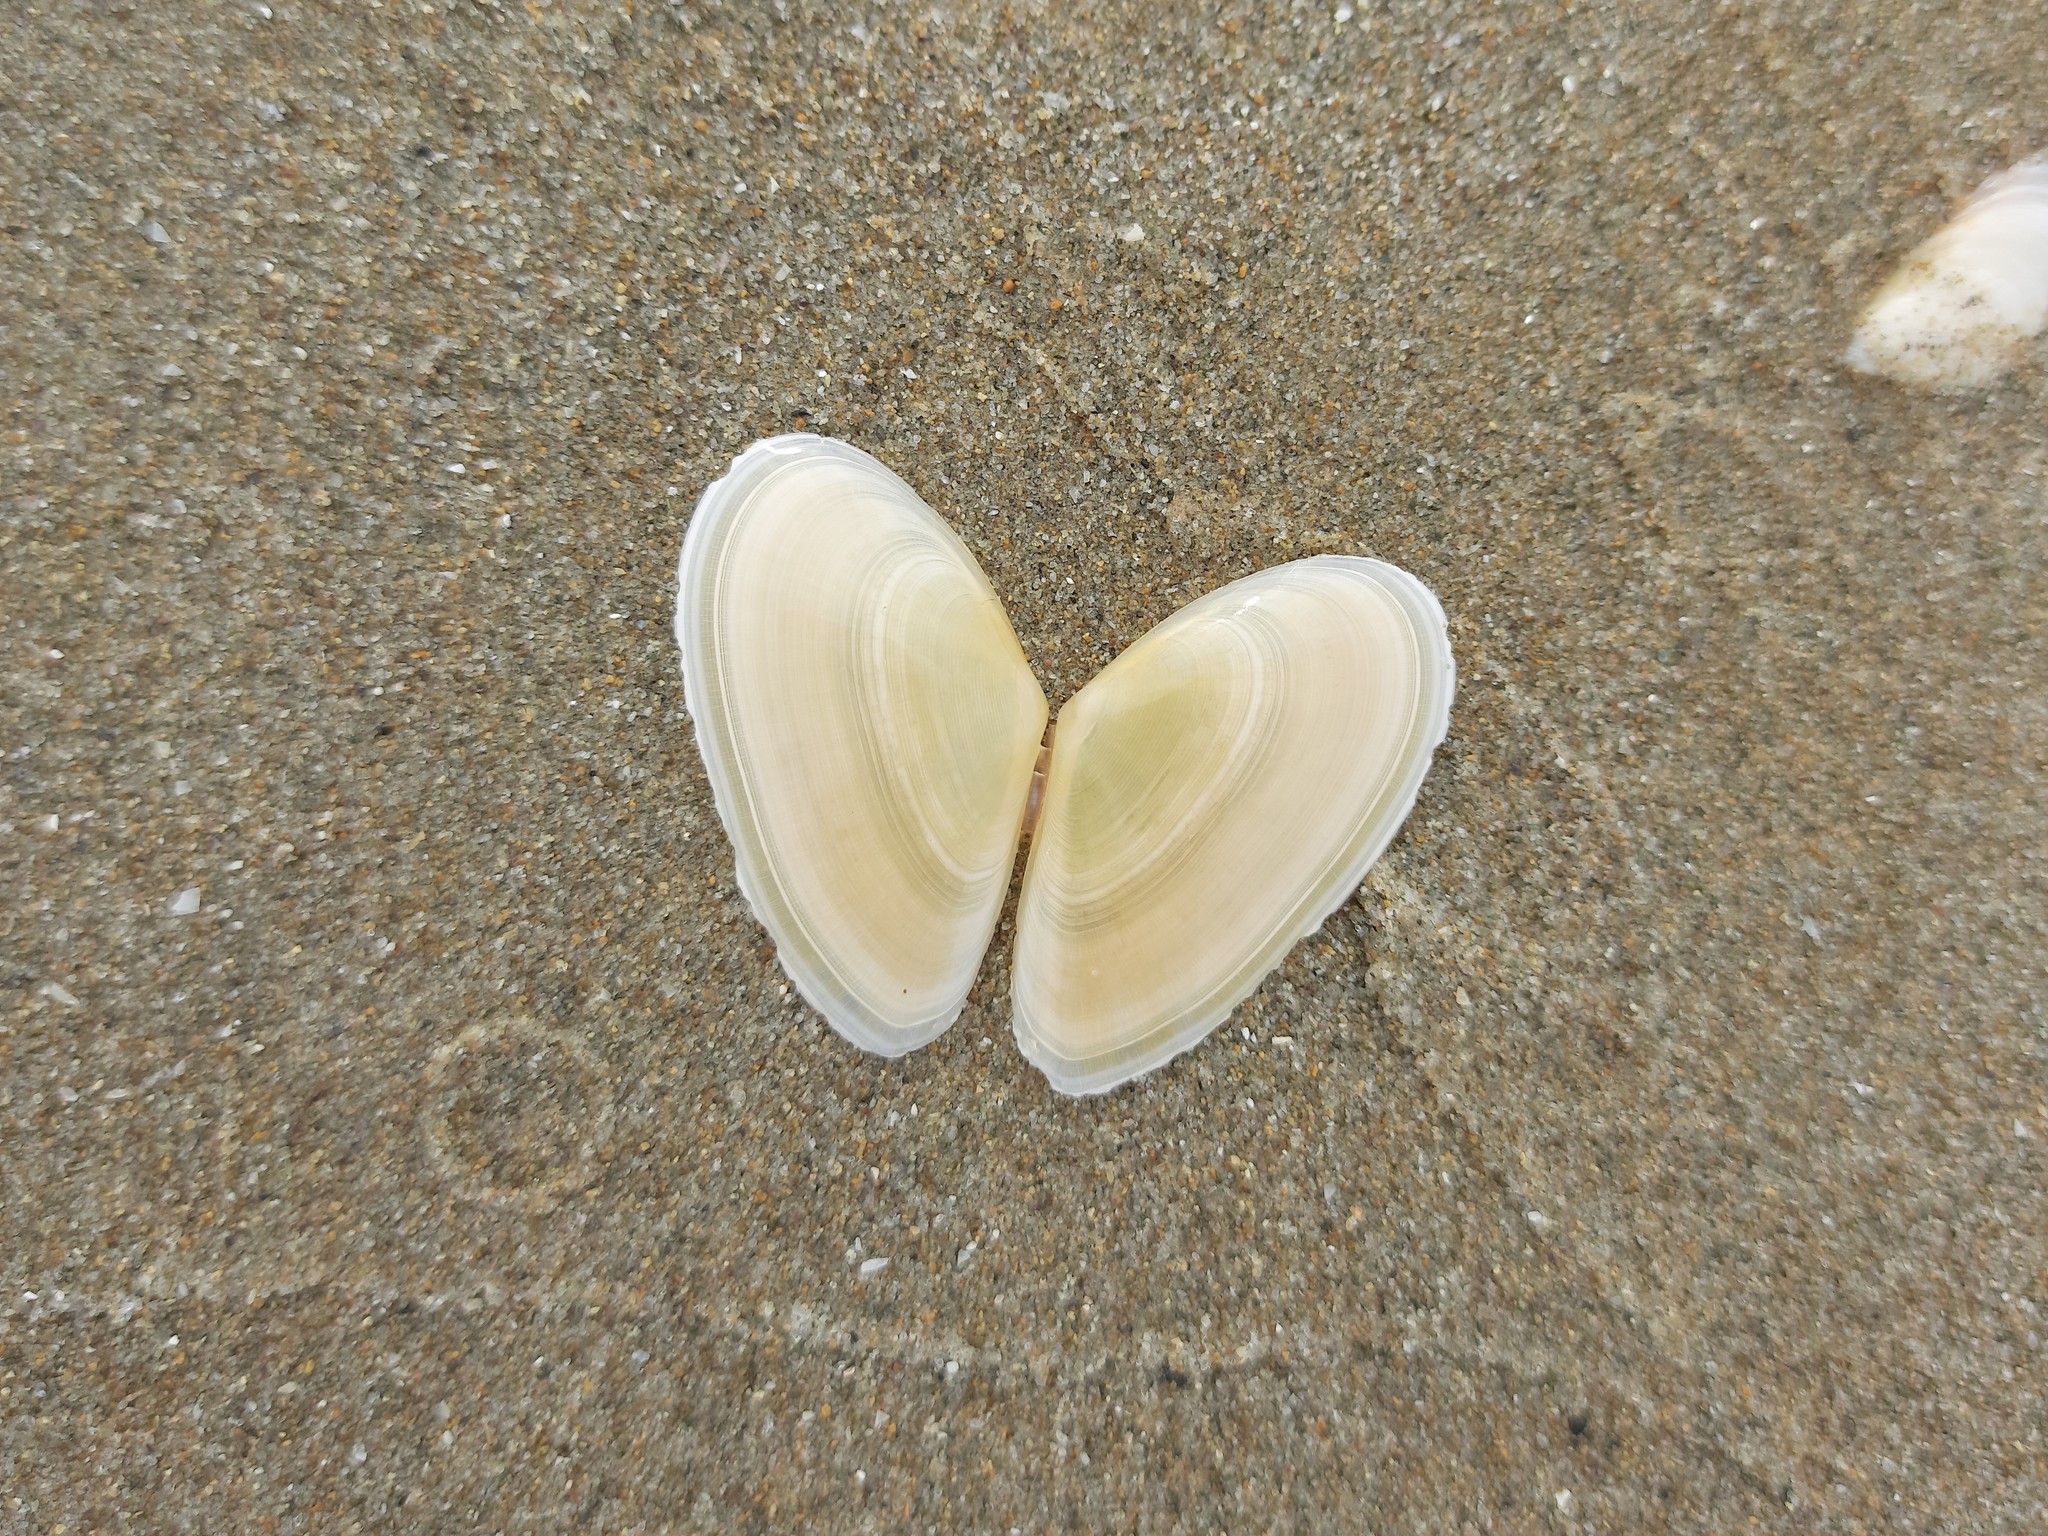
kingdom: Animalia
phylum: Mollusca
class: Bivalvia
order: Cardiida
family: Tellinidae
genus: Peronidia
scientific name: Peronidia albicans
